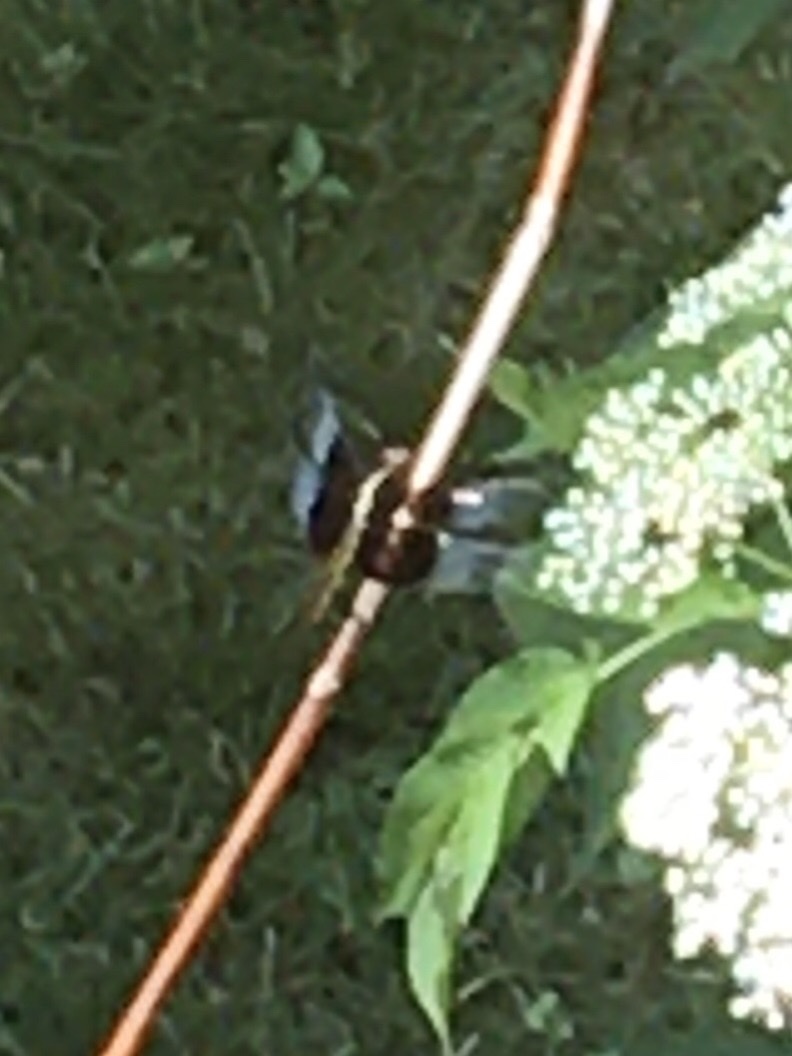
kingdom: Animalia
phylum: Arthropoda
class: Insecta
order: Odonata
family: Libellulidae
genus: Libellula
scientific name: Libellula luctuosa
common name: Widow skimmer
